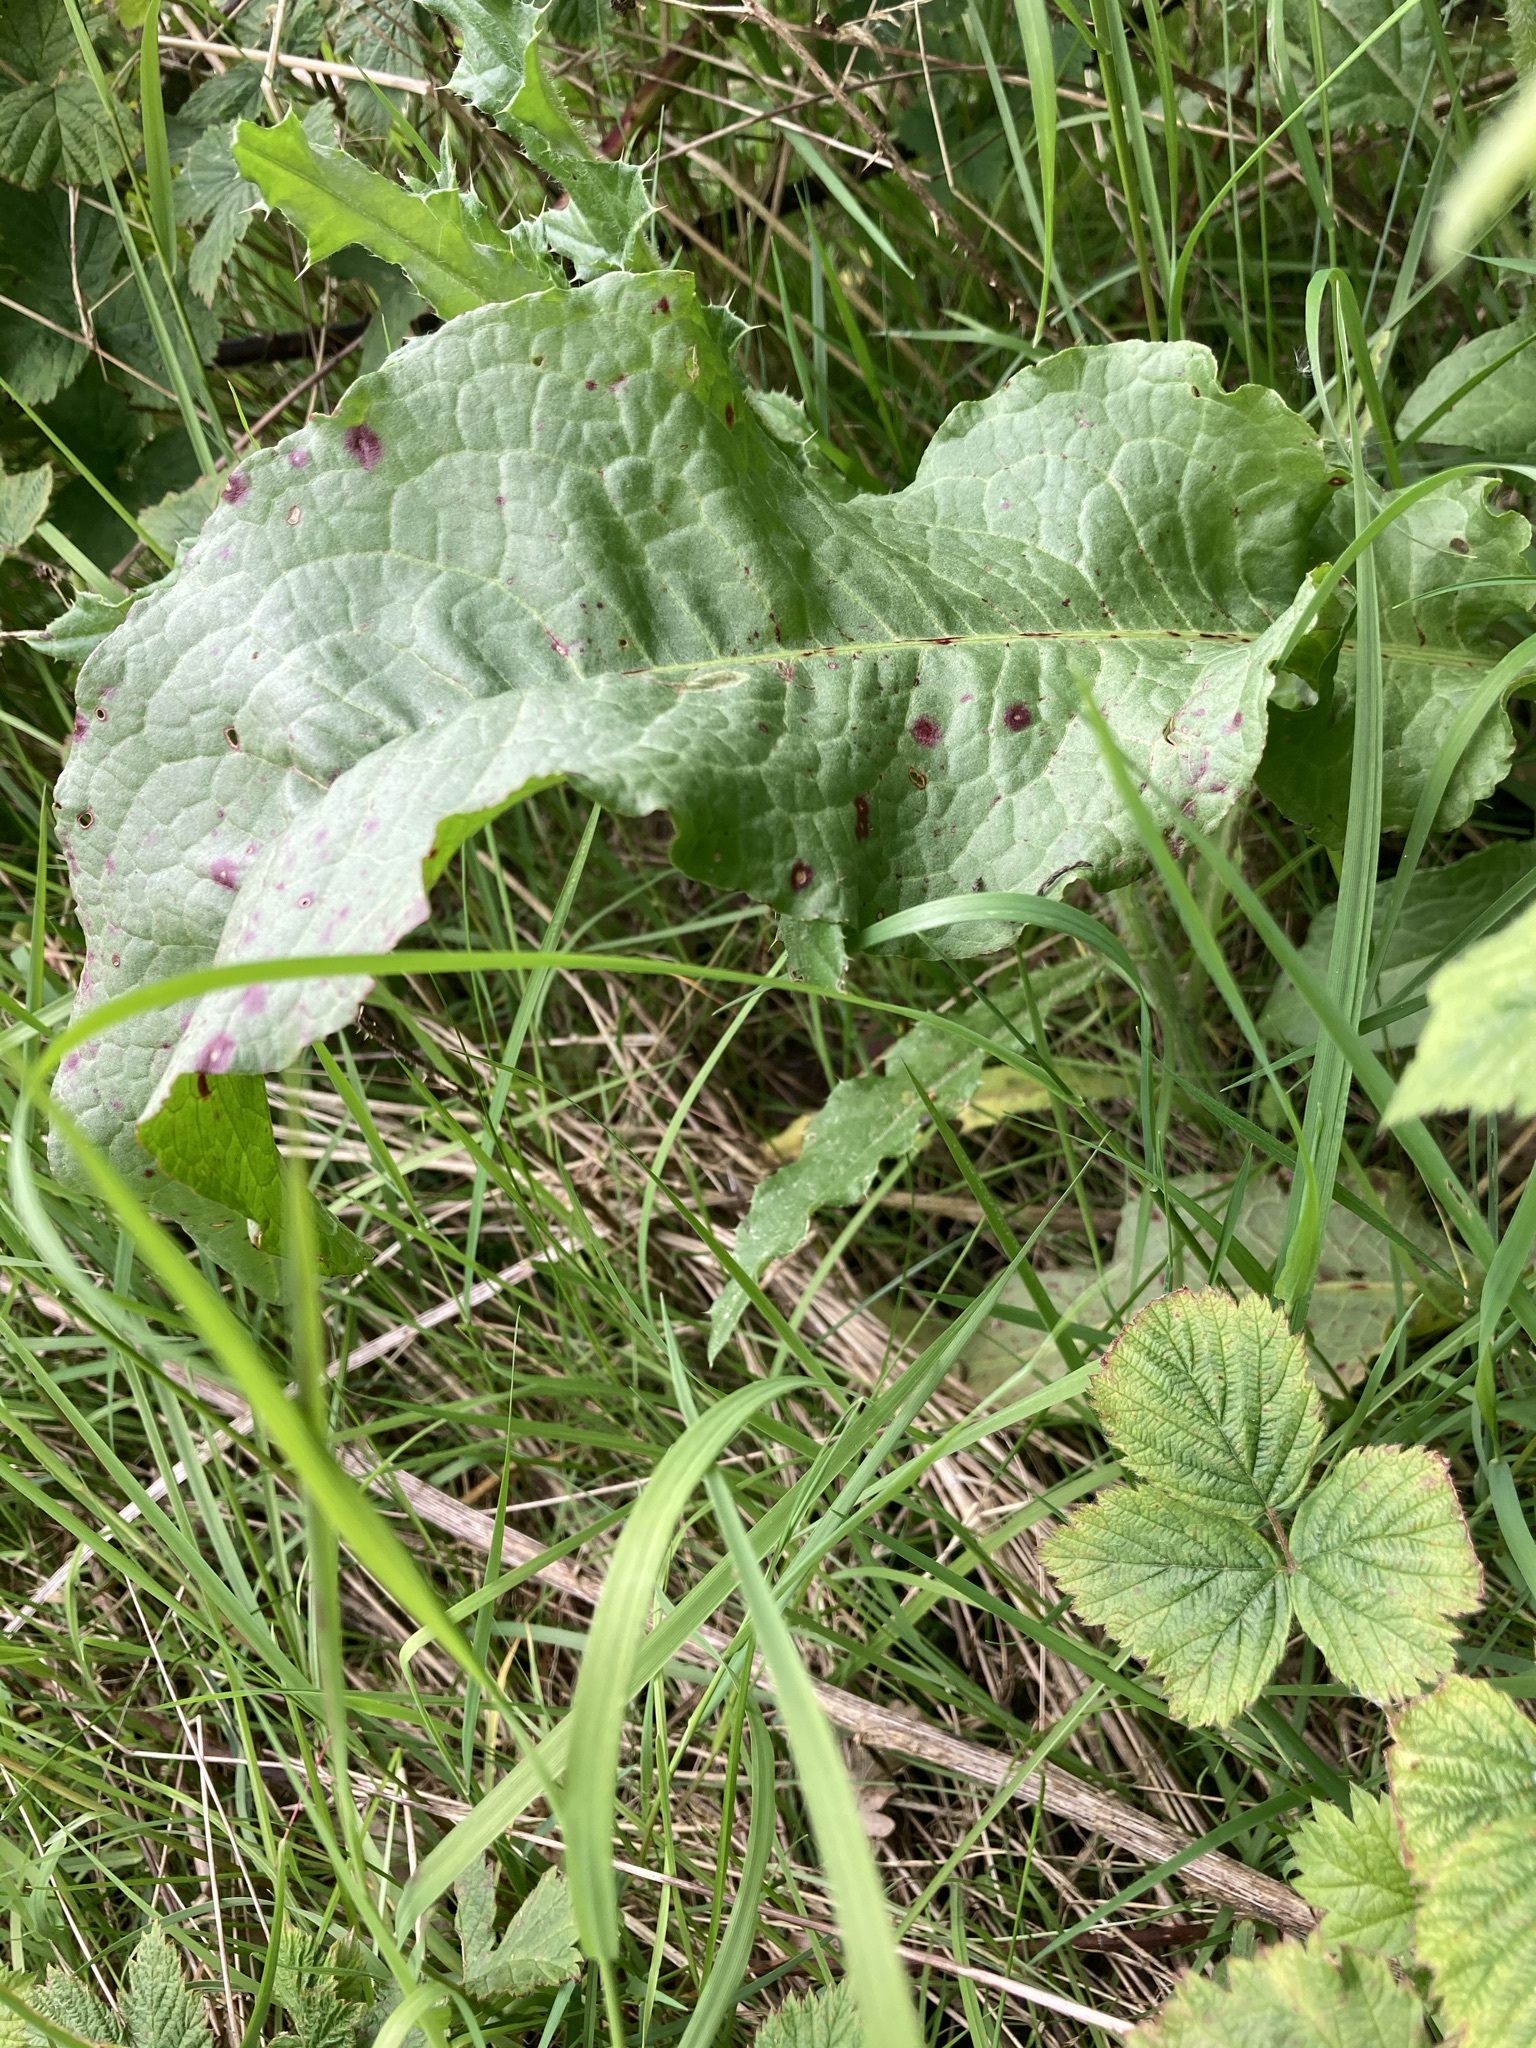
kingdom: Plantae
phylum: Tracheophyta
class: Magnoliopsida
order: Caryophyllales
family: Polygonaceae
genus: Rumex
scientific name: Rumex crispus
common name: Curled dock
